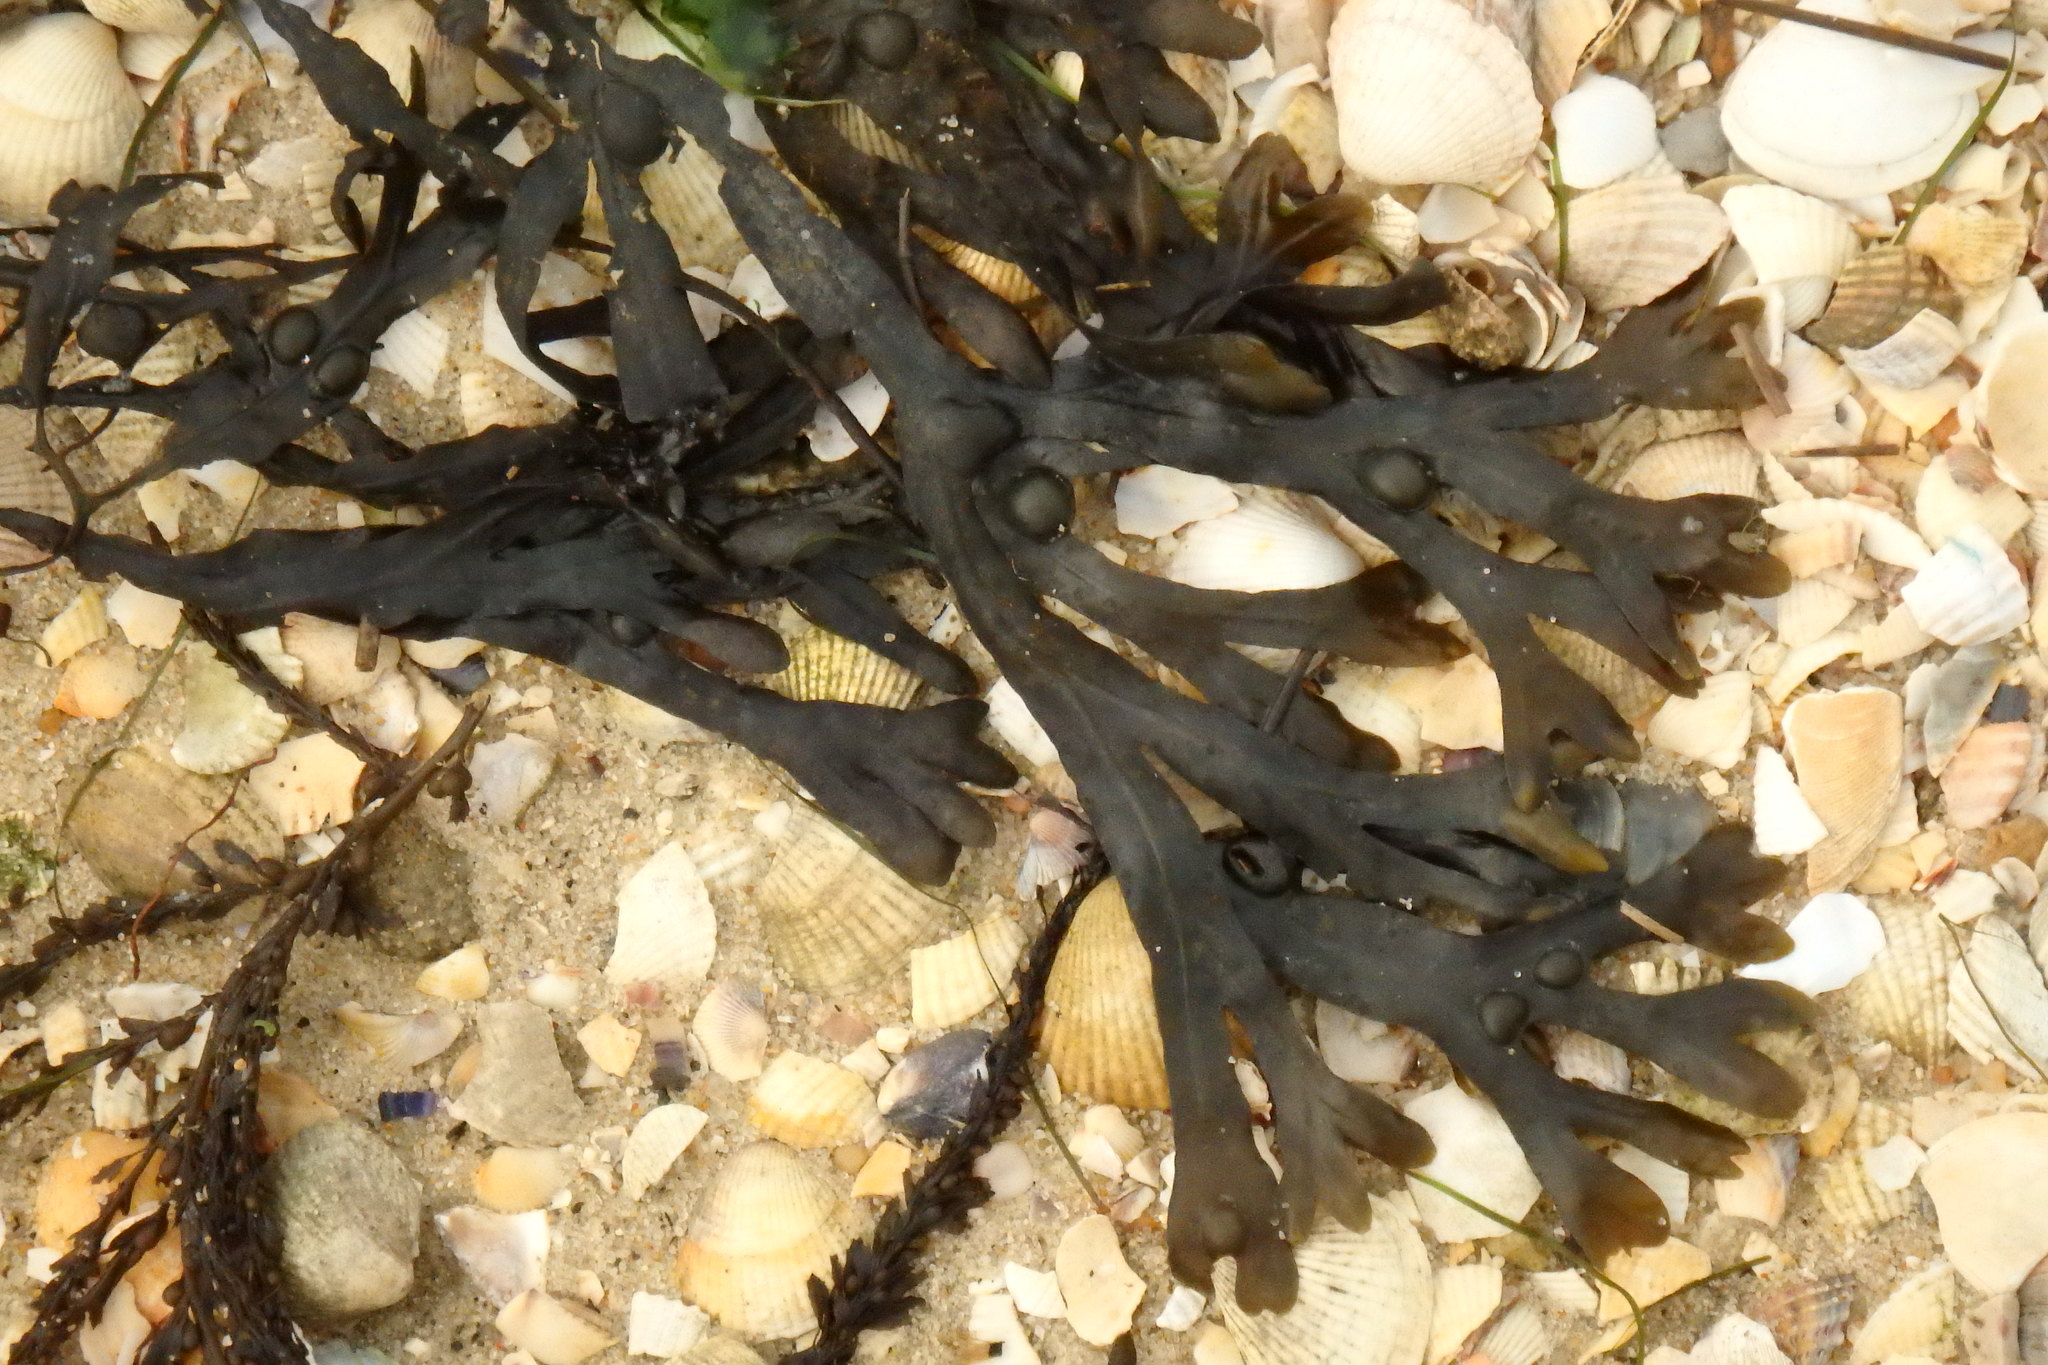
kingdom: Chromista
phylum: Ochrophyta
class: Phaeophyceae
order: Fucales
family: Fucaceae
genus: Fucus
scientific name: Fucus vesiculosus
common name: Bladder wrack
